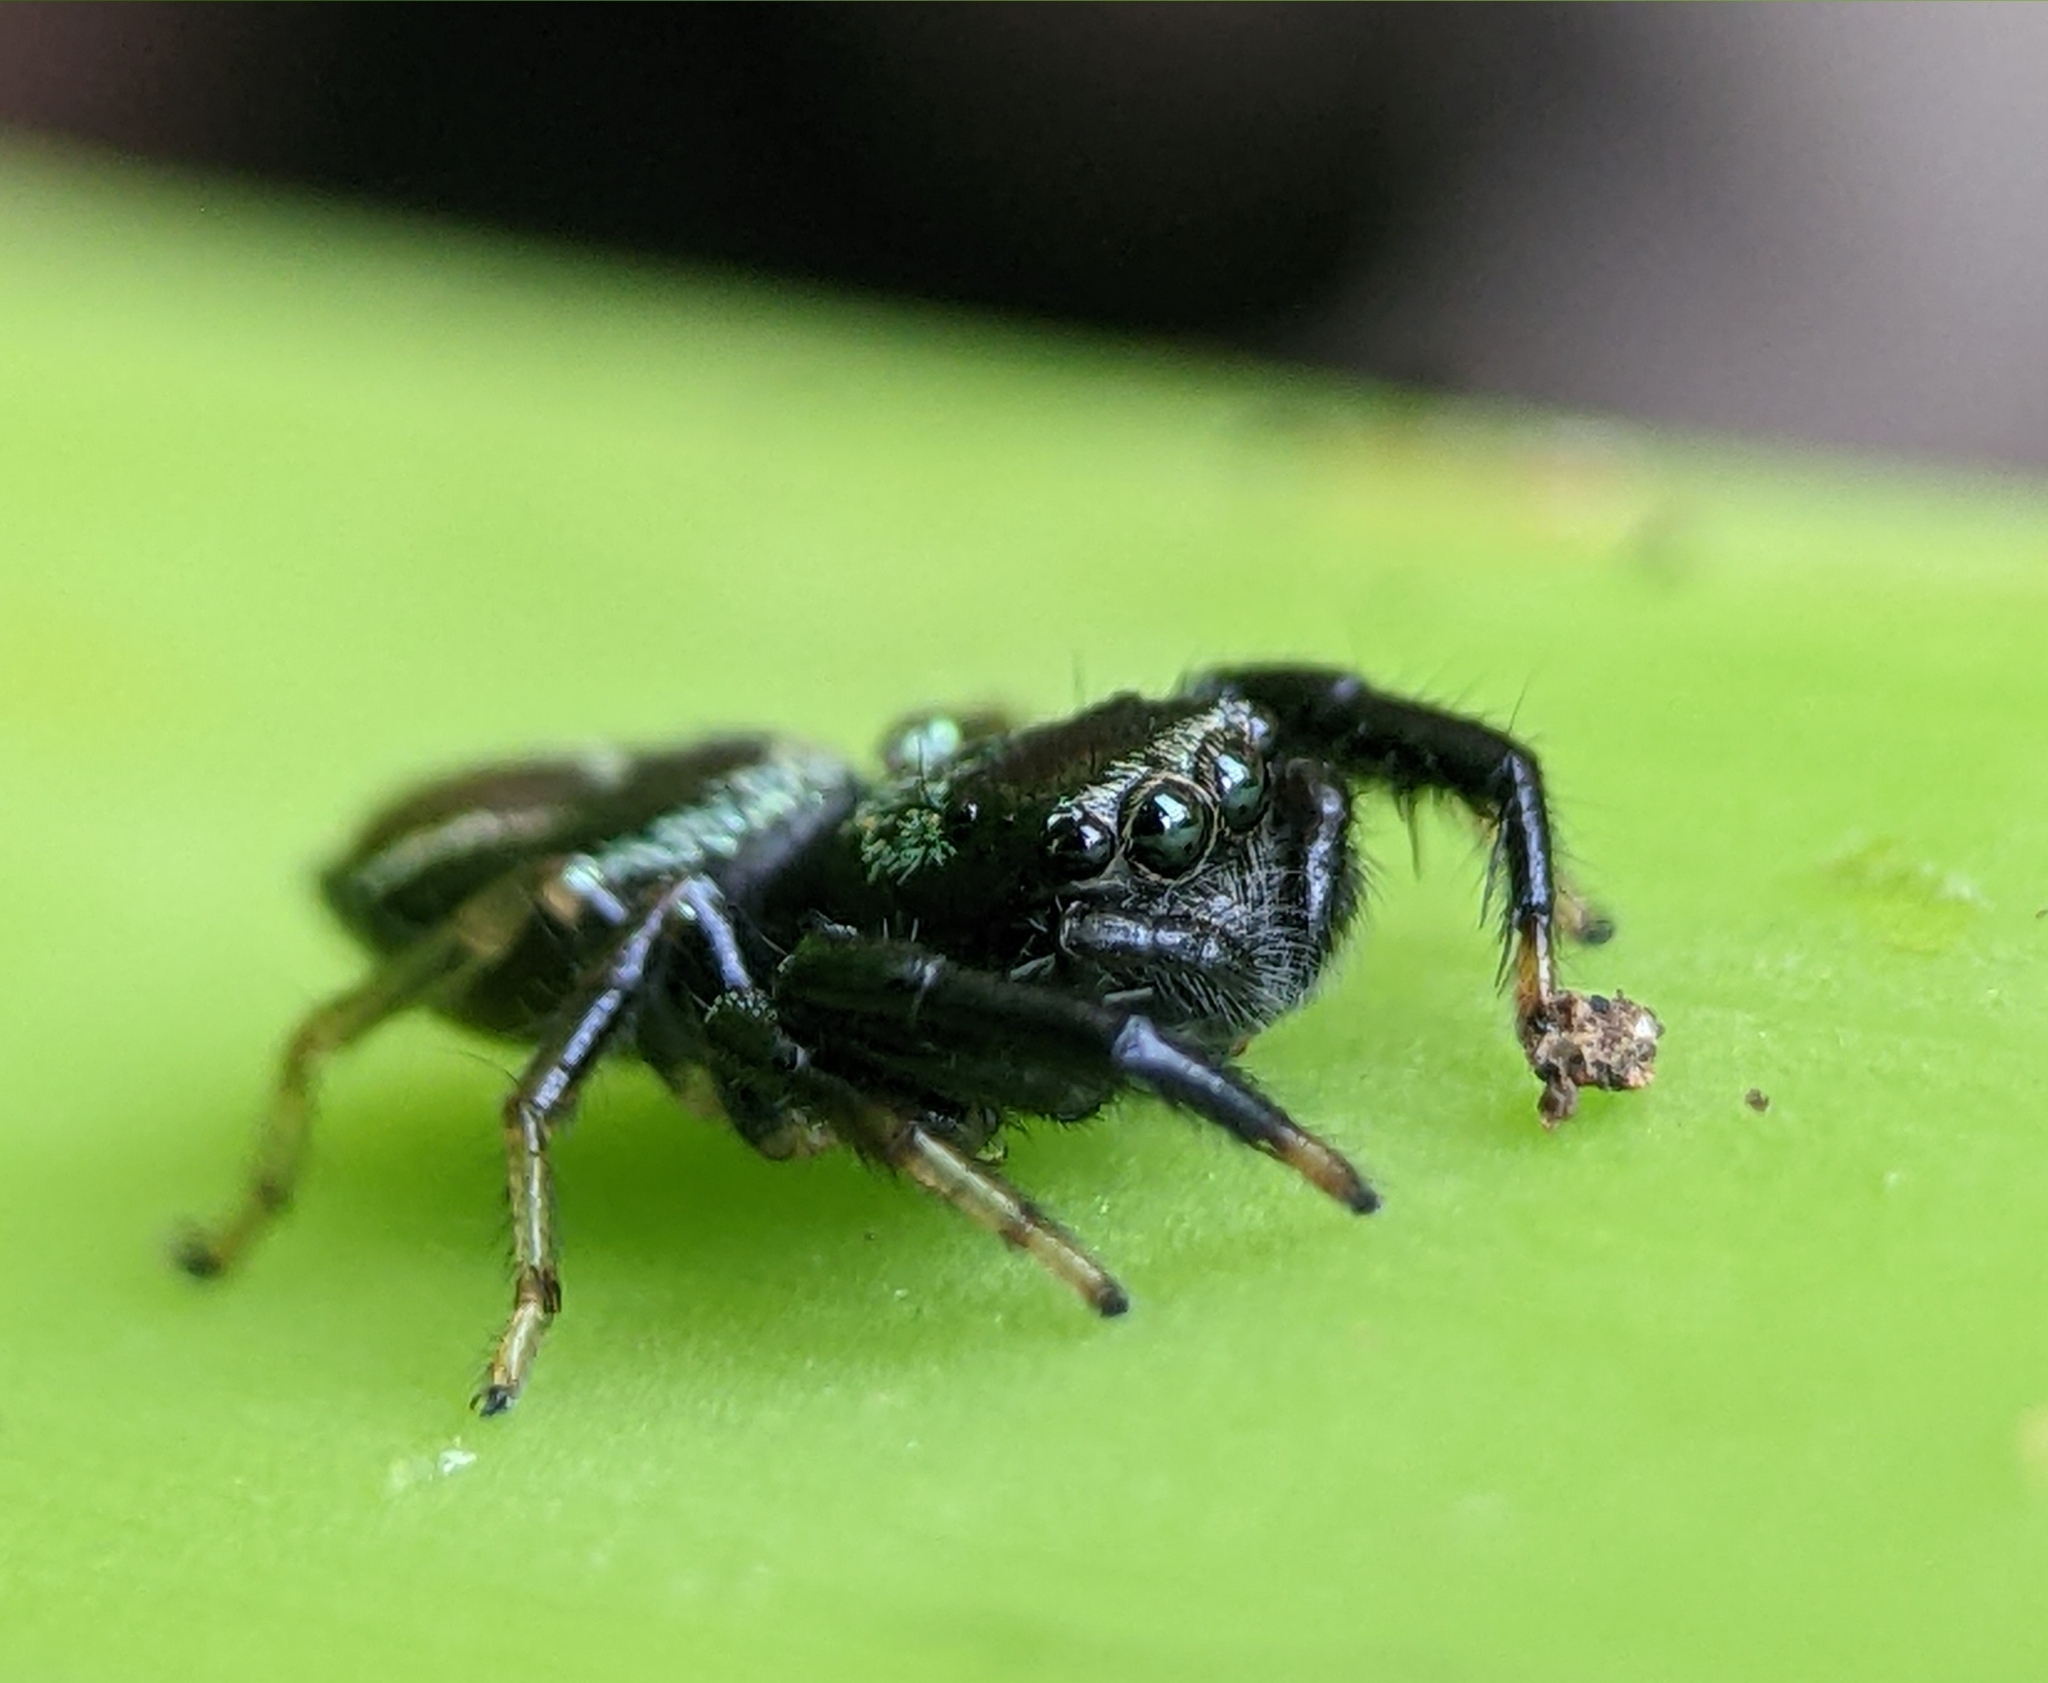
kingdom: Animalia
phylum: Arthropoda
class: Arachnida
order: Araneae
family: Salticidae
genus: Thiania
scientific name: Thiania bhamoensis
